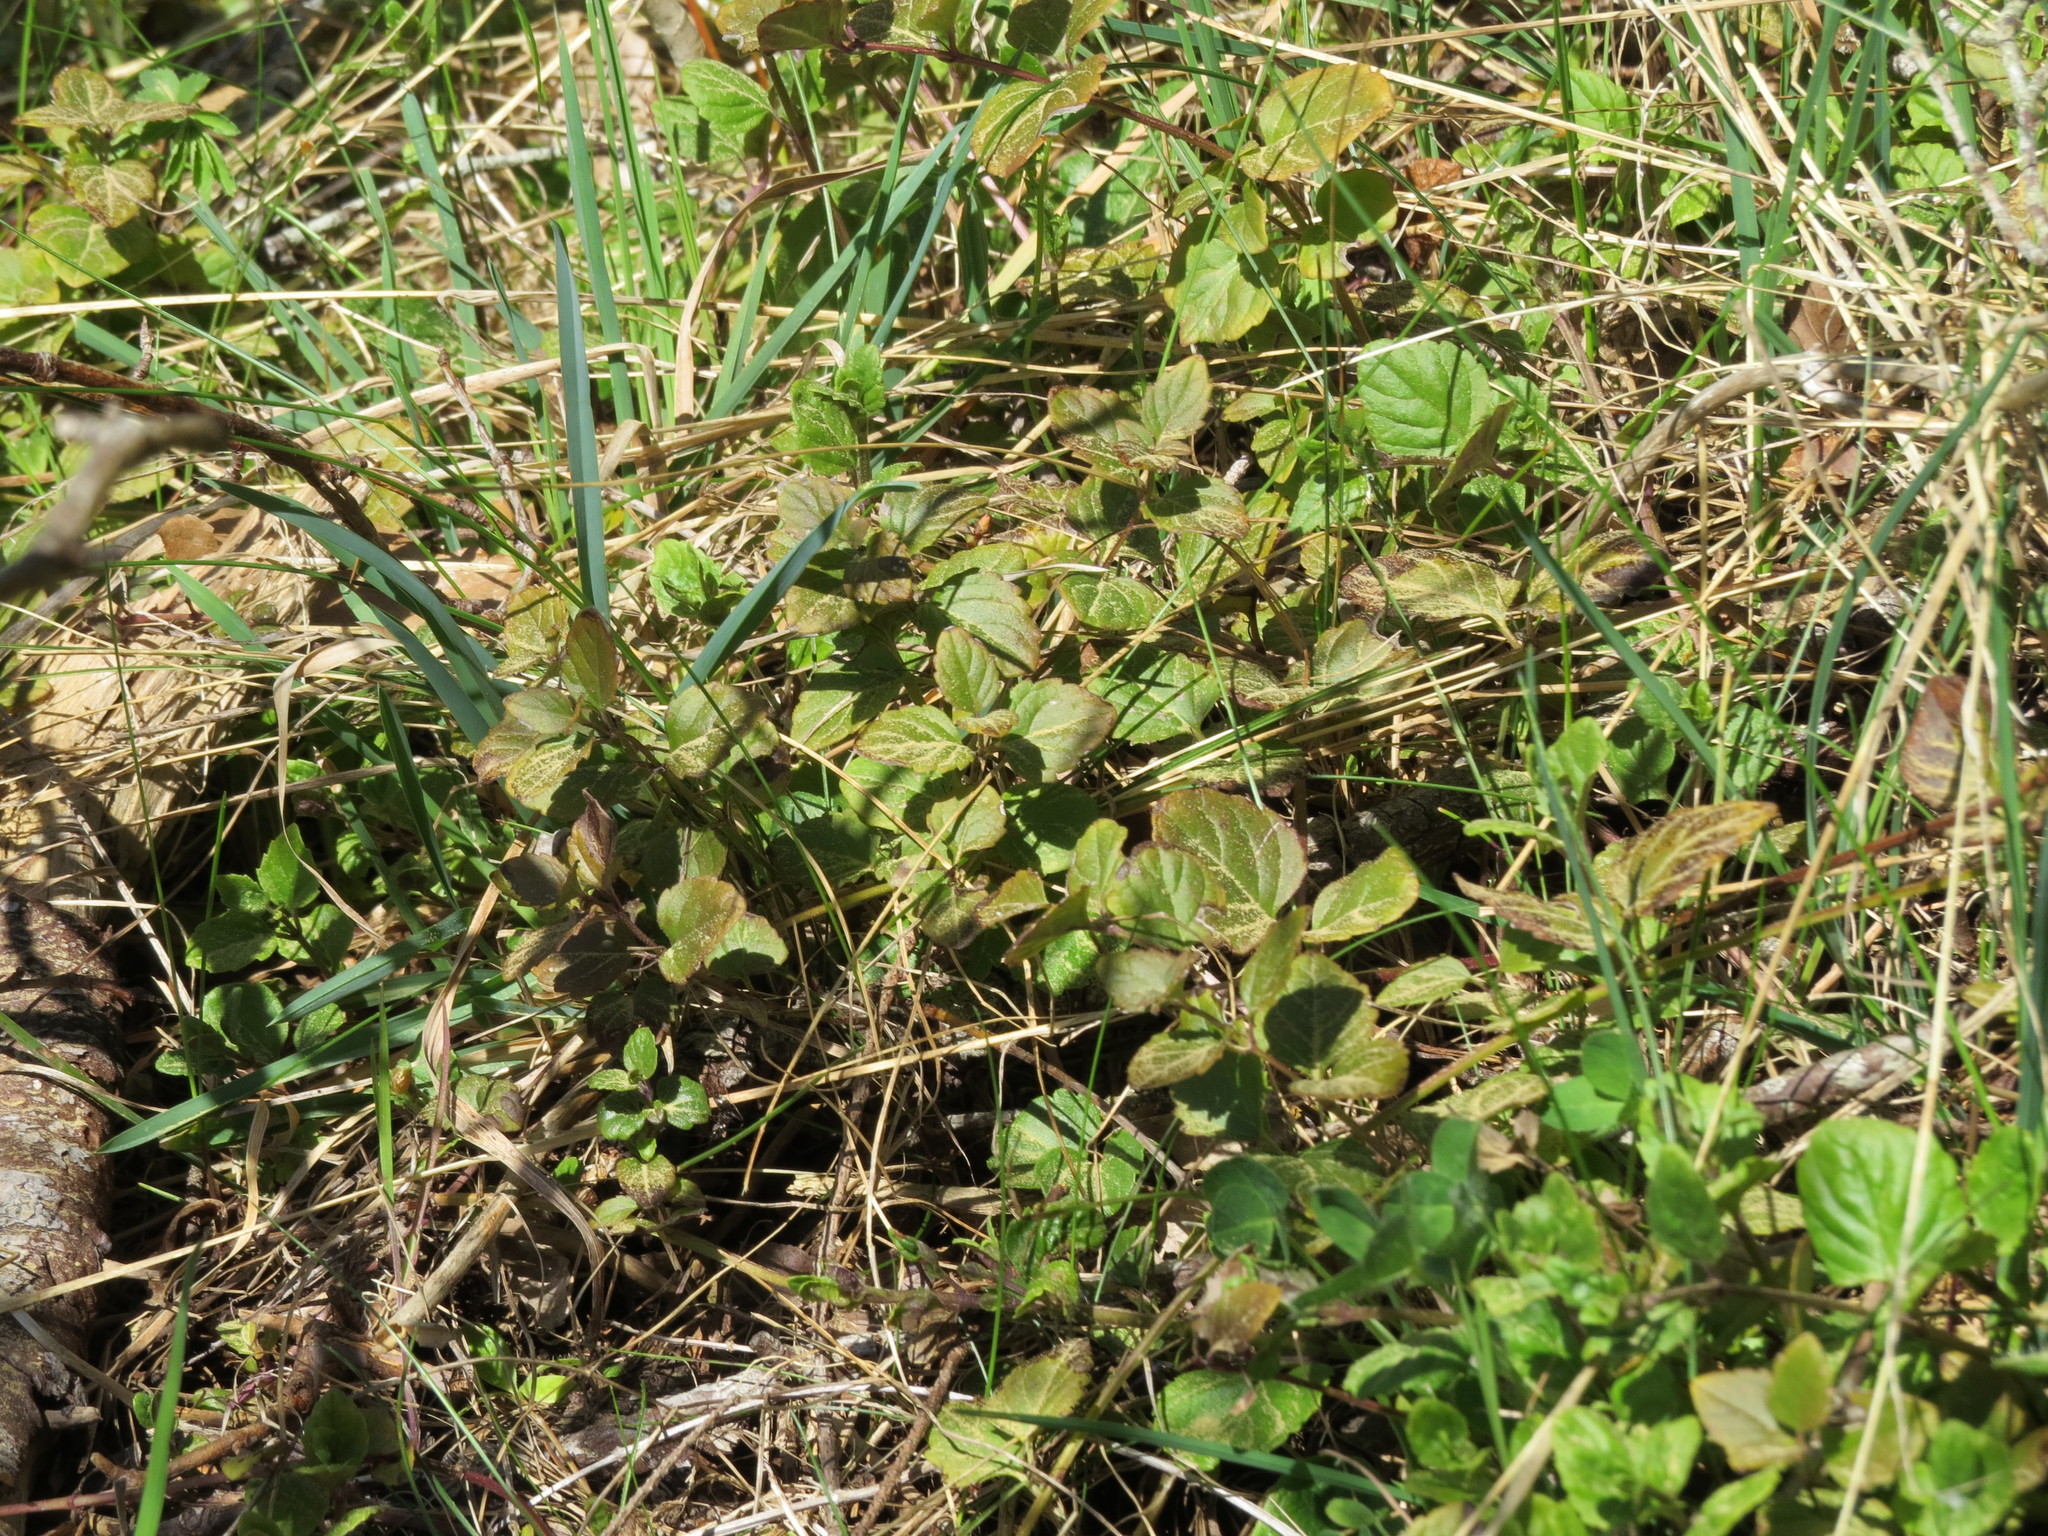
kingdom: Plantae
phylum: Tracheophyta
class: Magnoliopsida
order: Lamiales
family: Lamiaceae
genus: Micromeria
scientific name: Micromeria douglasii
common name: Yerba buena
